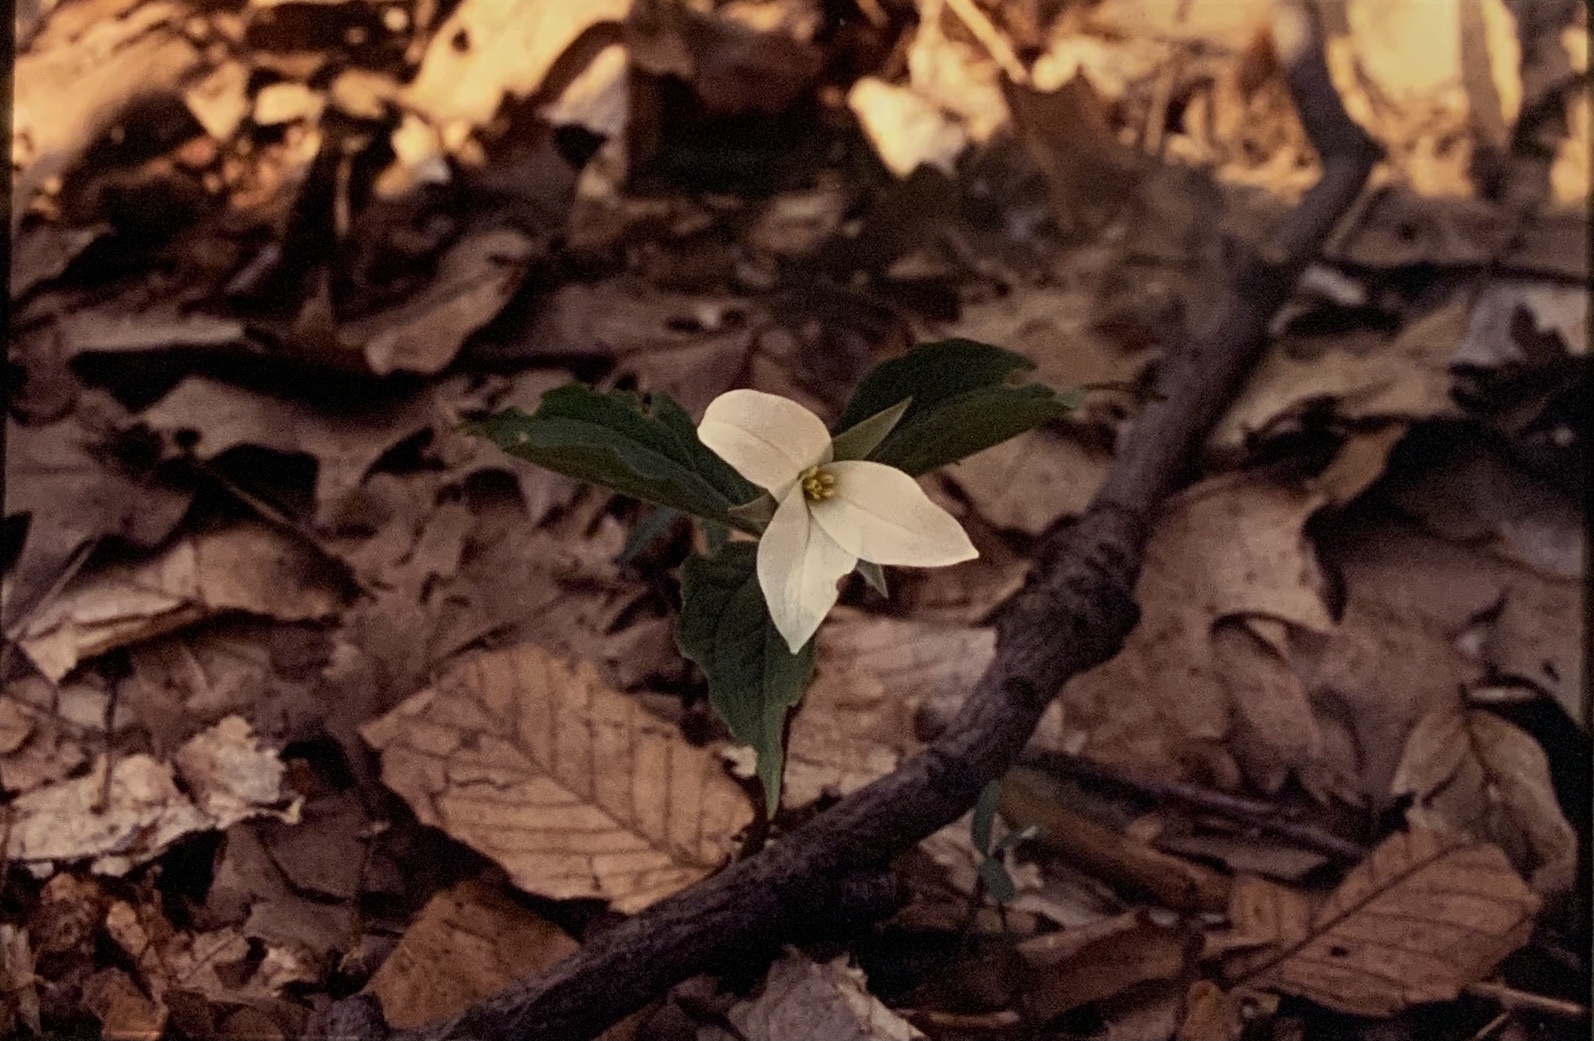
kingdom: Plantae
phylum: Tracheophyta
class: Liliopsida
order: Liliales
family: Melanthiaceae
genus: Trillium
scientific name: Trillium grandiflorum
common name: Great white trillium
